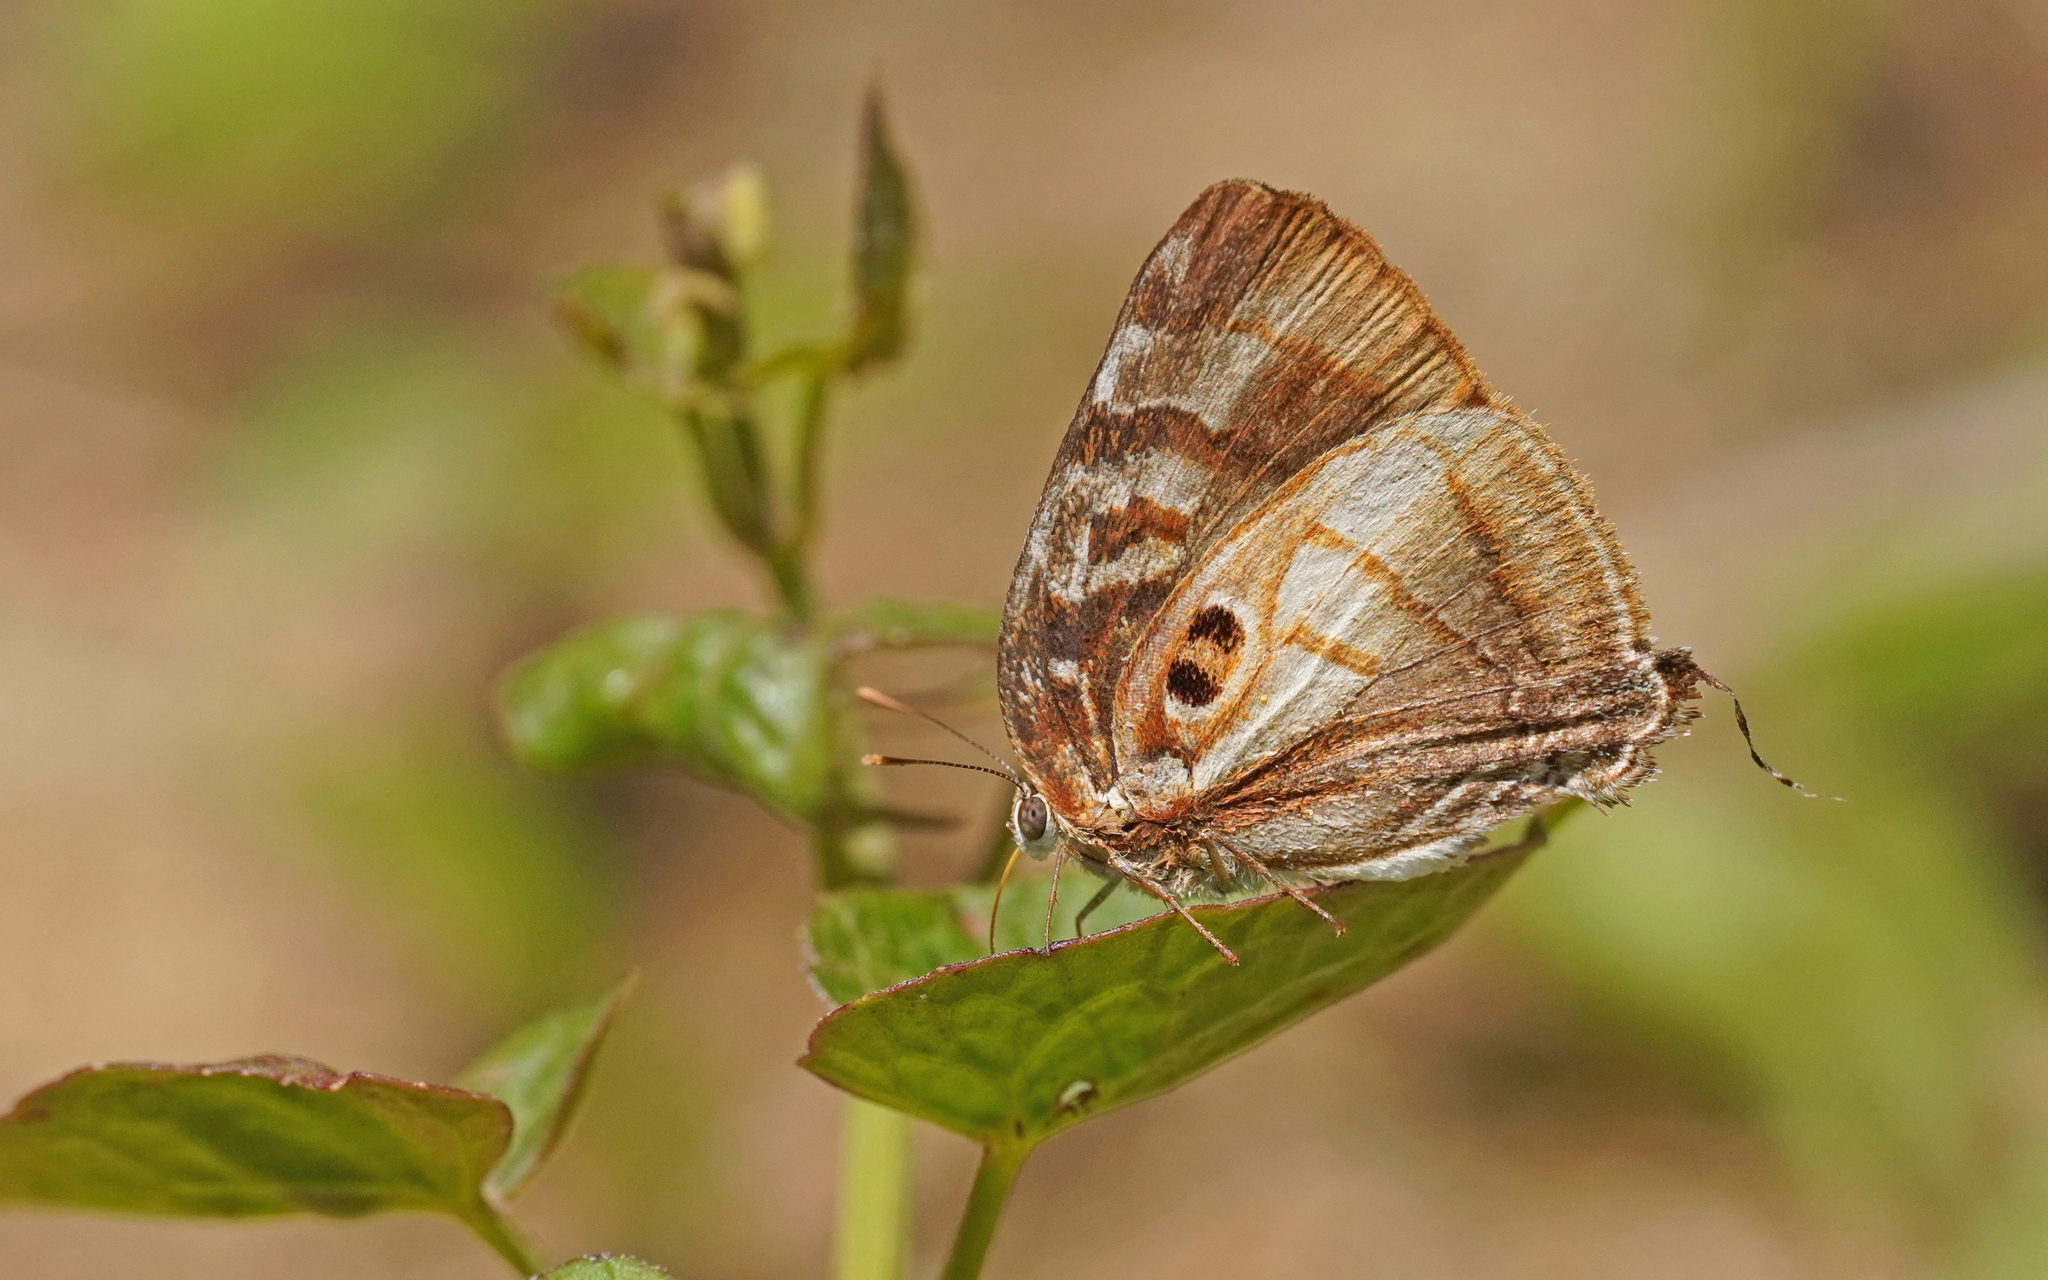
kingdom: Animalia
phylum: Arthropoda
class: Insecta
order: Lepidoptera
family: Lycaenidae
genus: Rekoa
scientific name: Rekoa meton
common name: Meton hairstreak
